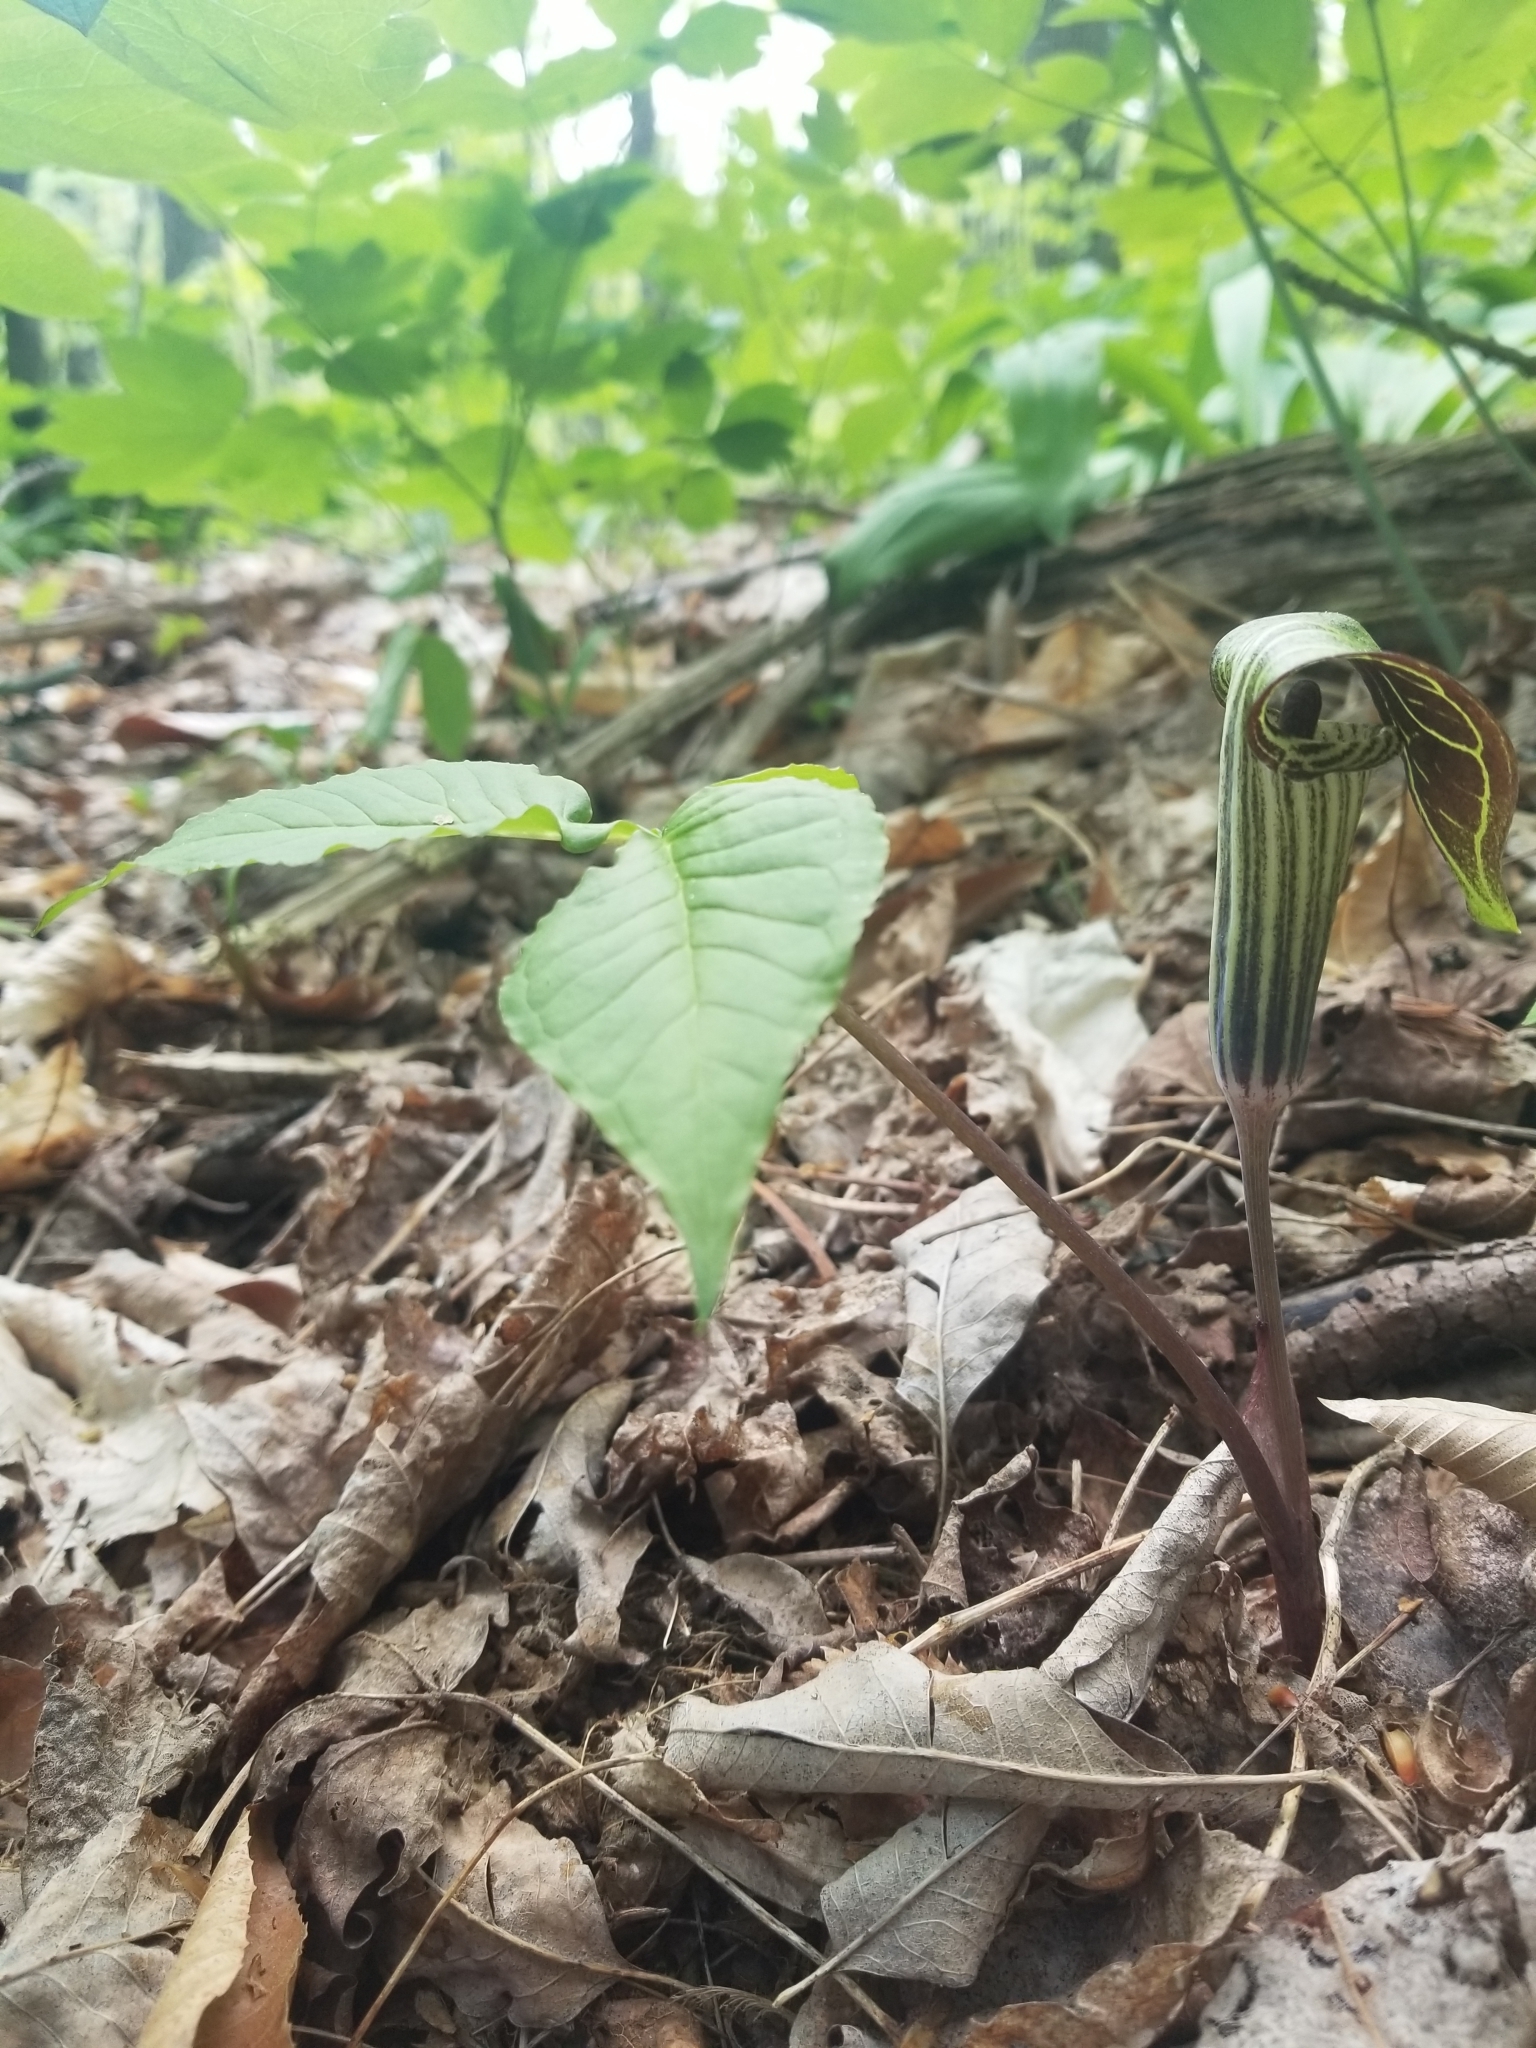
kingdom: Plantae
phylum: Tracheophyta
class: Liliopsida
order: Alismatales
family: Araceae
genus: Arisaema
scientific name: Arisaema triphyllum
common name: Jack-in-the-pulpit
